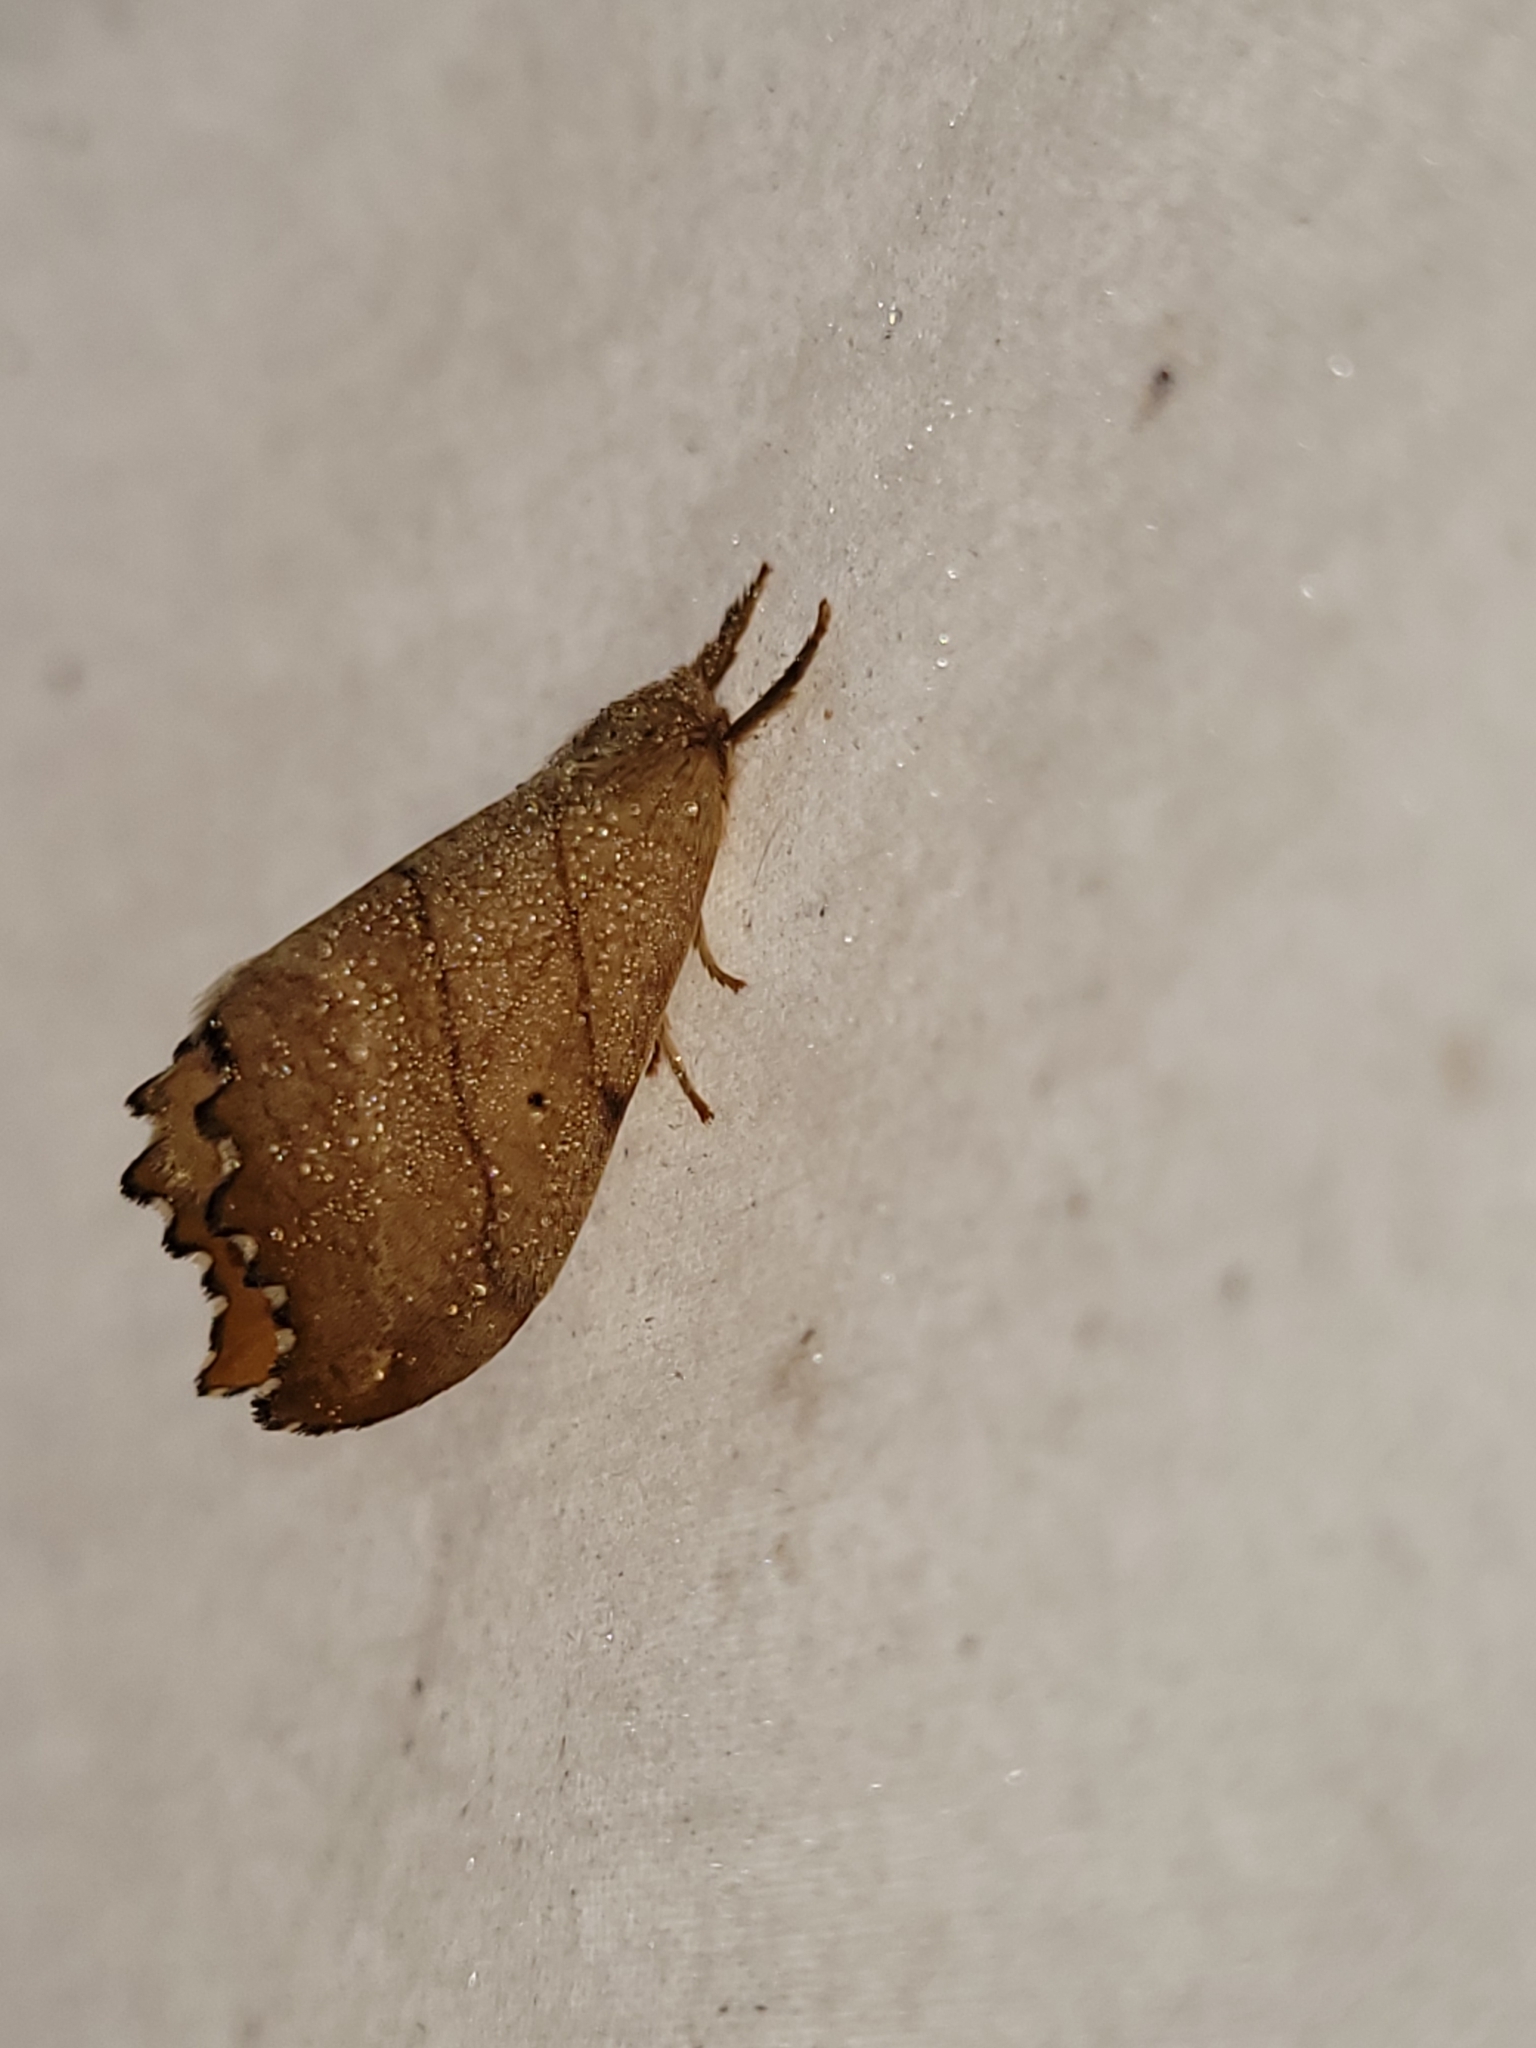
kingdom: Animalia
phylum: Arthropoda
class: Insecta
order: Lepidoptera
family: Drepanidae
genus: Falcaria
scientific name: Falcaria bilineata
